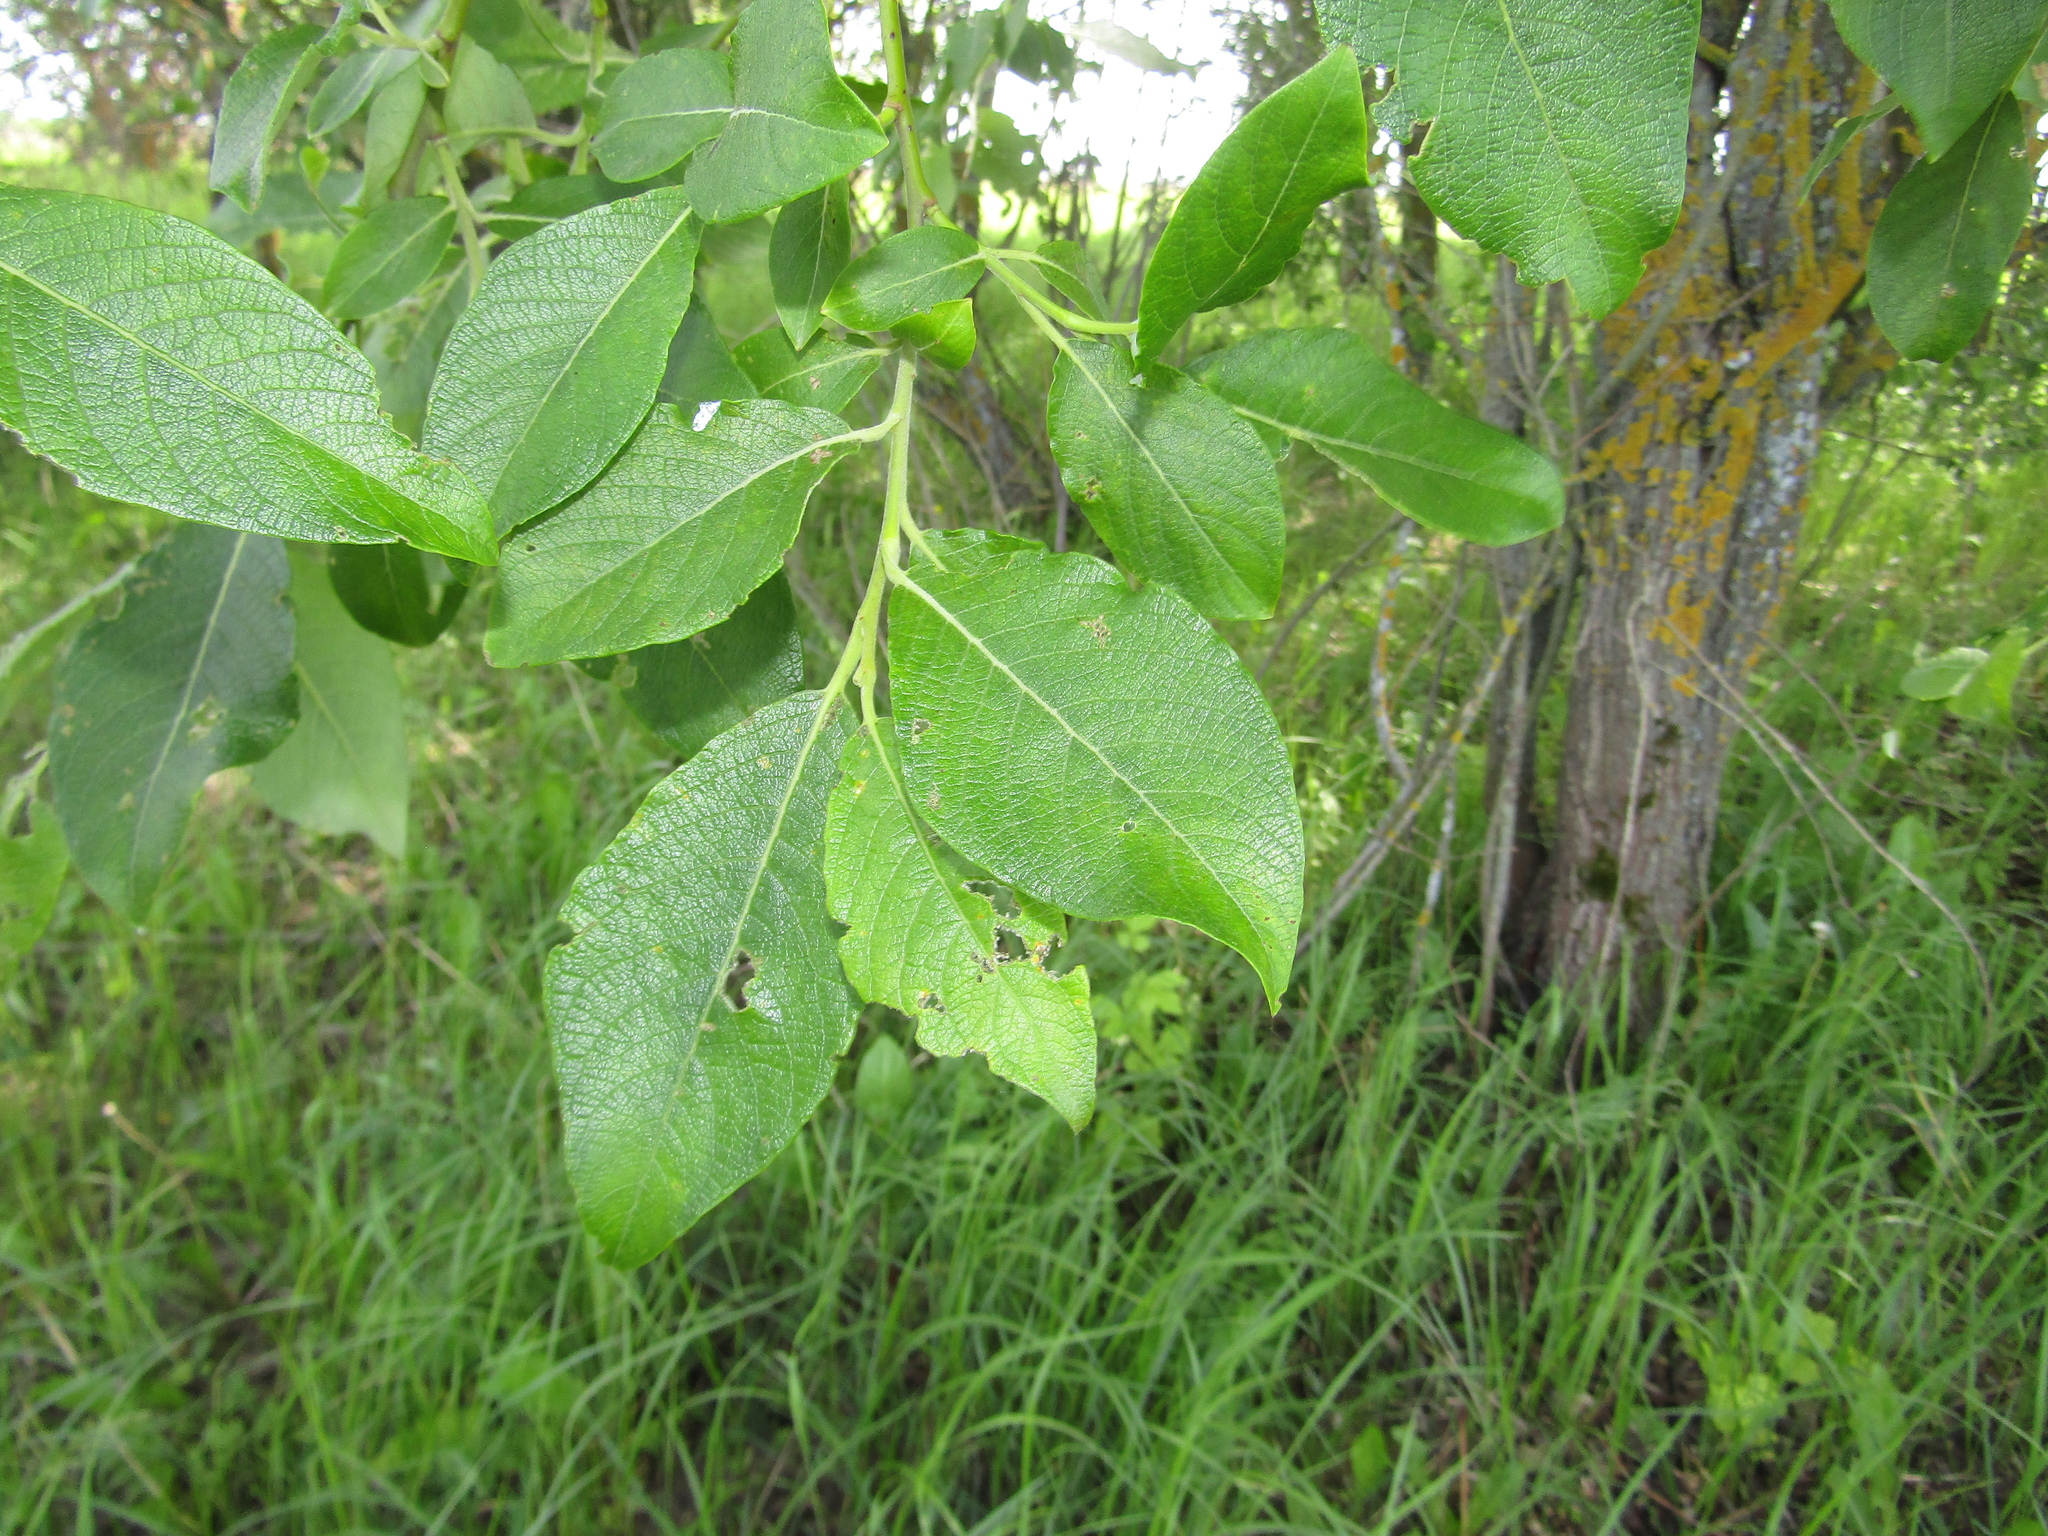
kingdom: Plantae
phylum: Tracheophyta
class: Magnoliopsida
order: Malpighiales
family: Salicaceae
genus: Salix
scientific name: Salix caprea
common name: Goat willow
